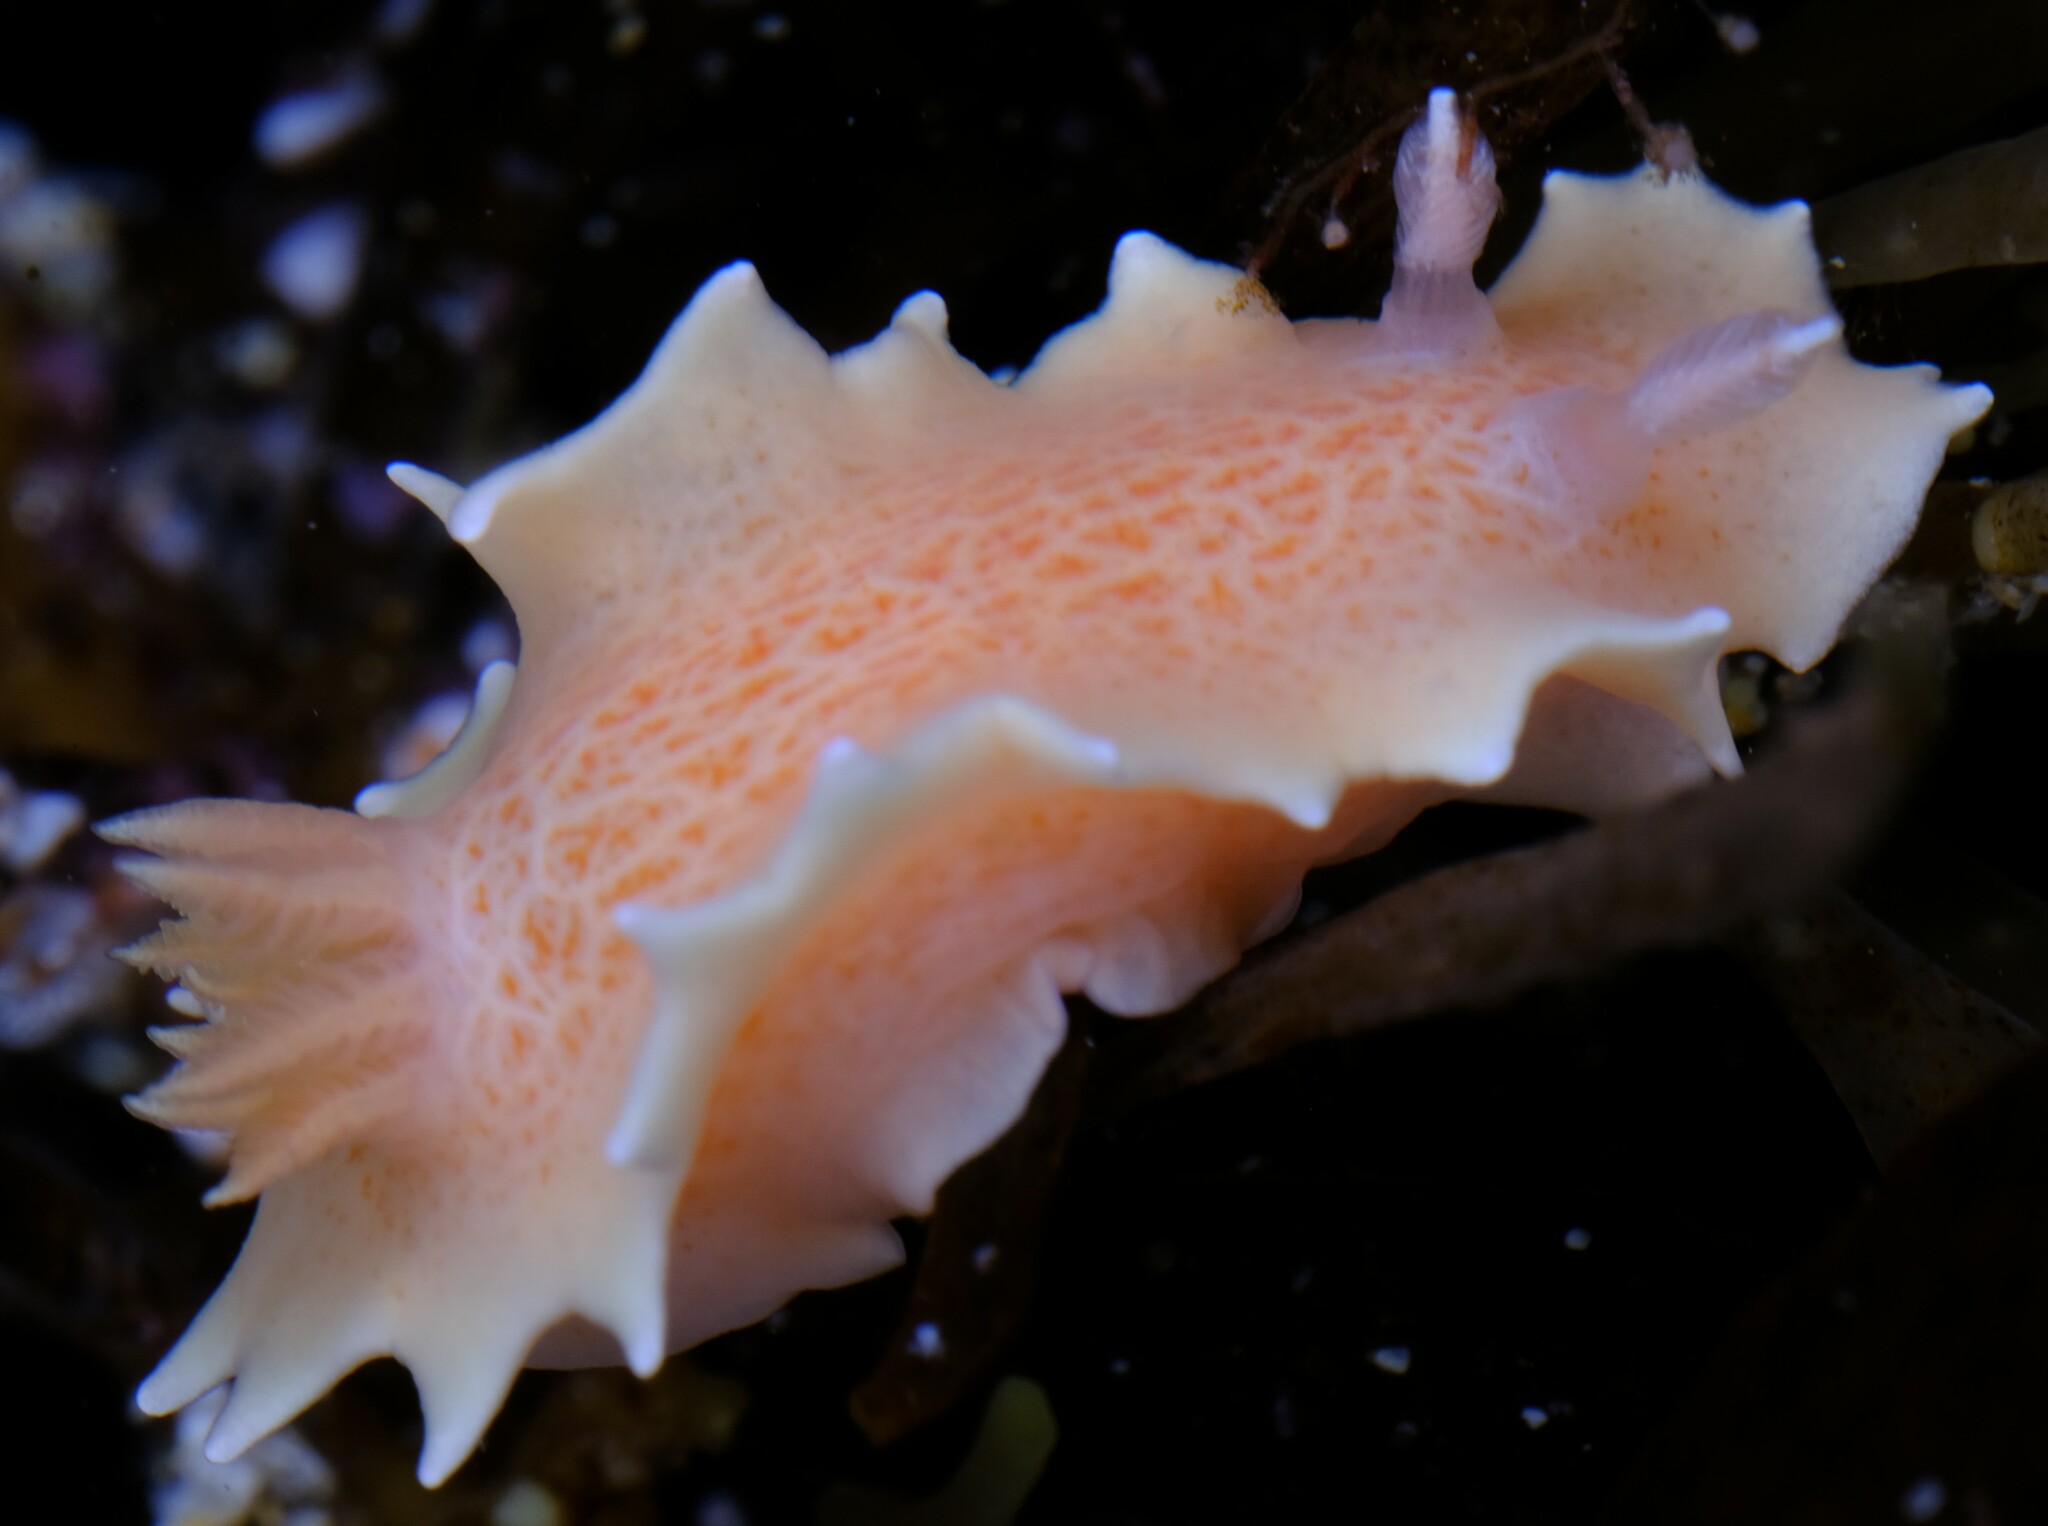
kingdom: Animalia
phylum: Mollusca
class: Gastropoda
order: Nudibranchia
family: Chromodorididae
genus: Verconia
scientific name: Verconia verconis
